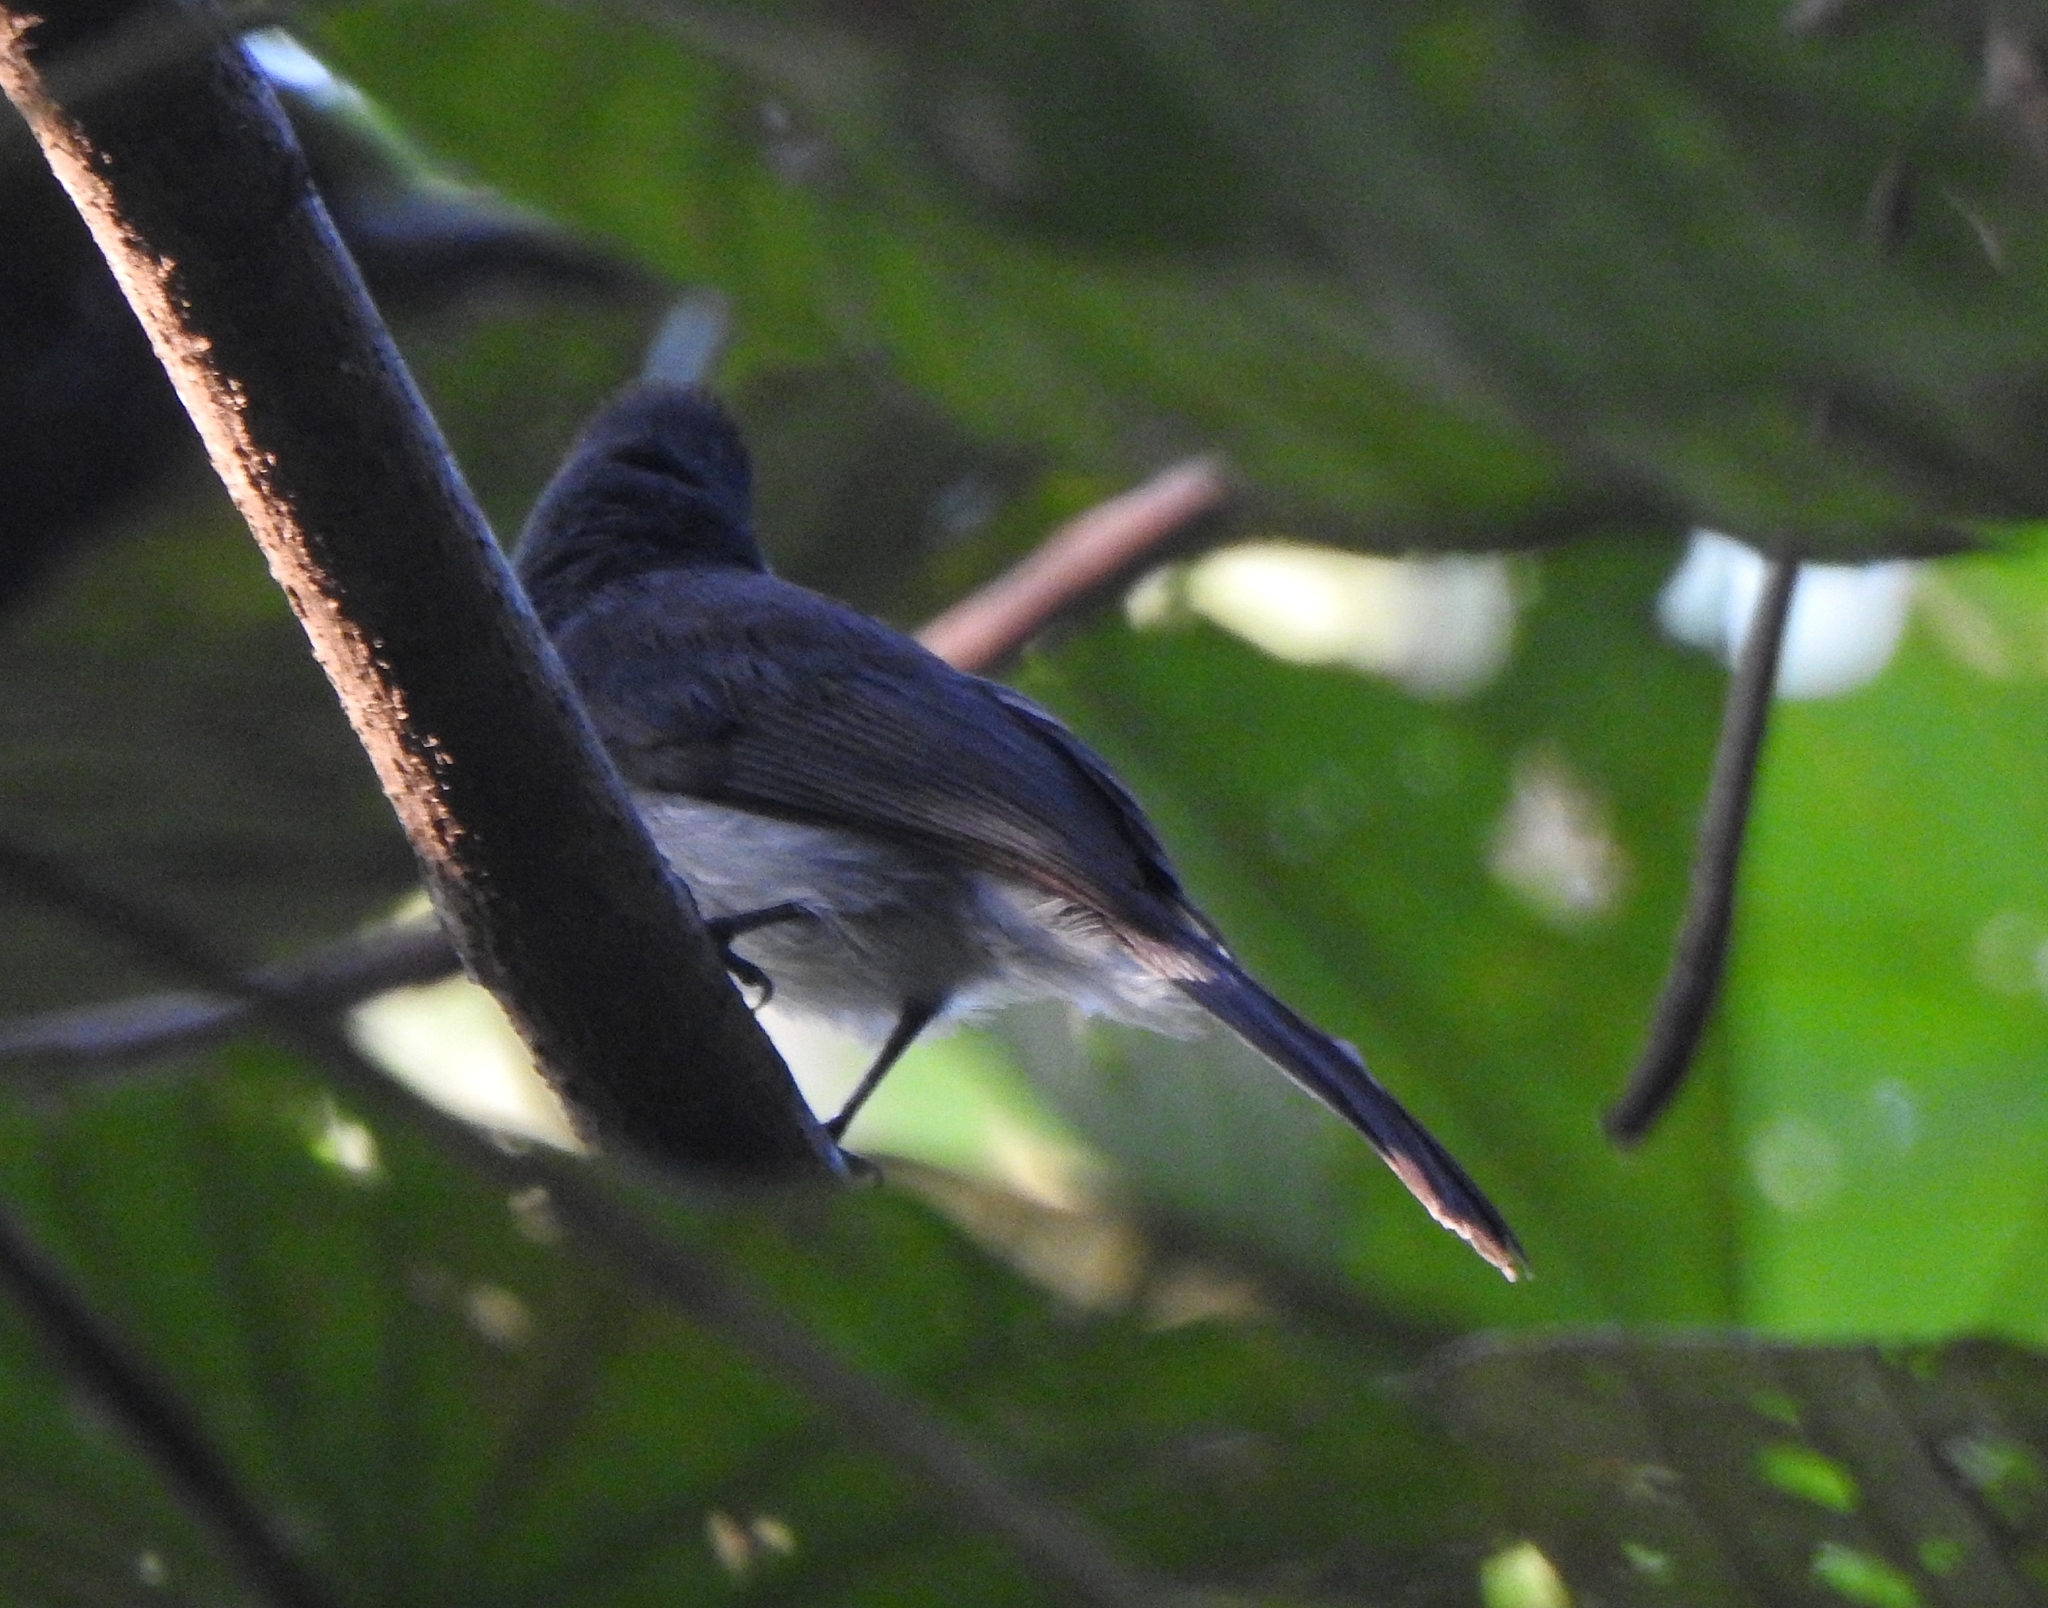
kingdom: Animalia
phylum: Chordata
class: Aves
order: Passeriformes
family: Monarchidae
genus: Hypothymis
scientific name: Hypothymis azurea
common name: Black-naped monarch
